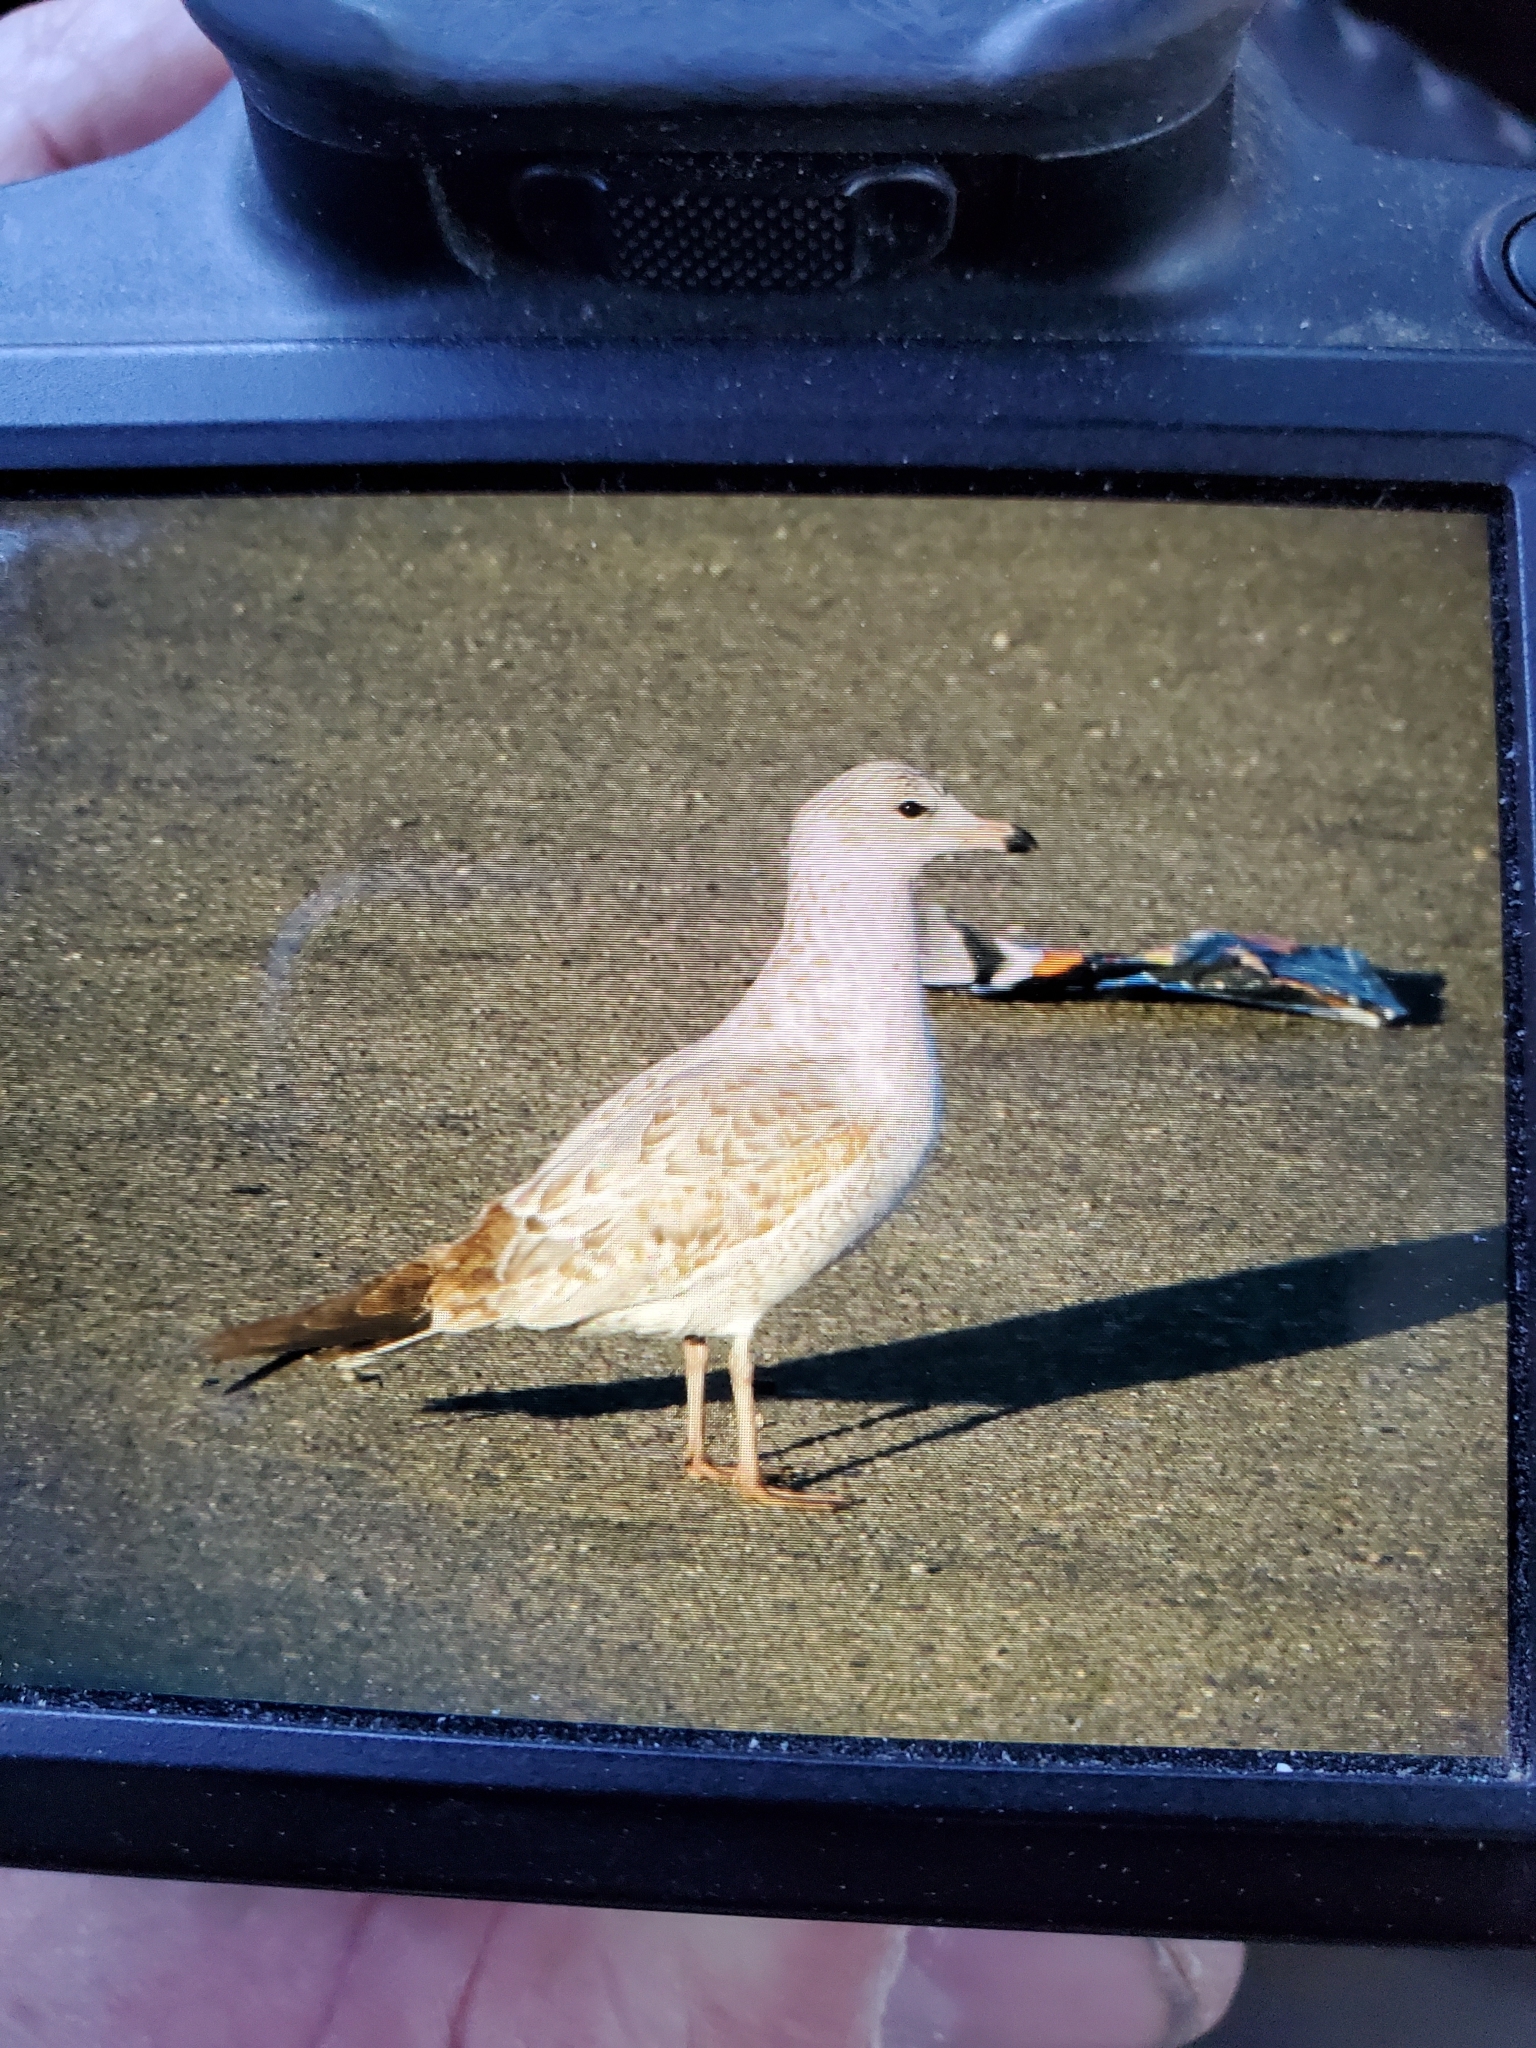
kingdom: Animalia
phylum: Chordata
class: Aves
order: Charadriiformes
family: Laridae
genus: Larus
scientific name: Larus delawarensis
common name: Ring-billed gull
